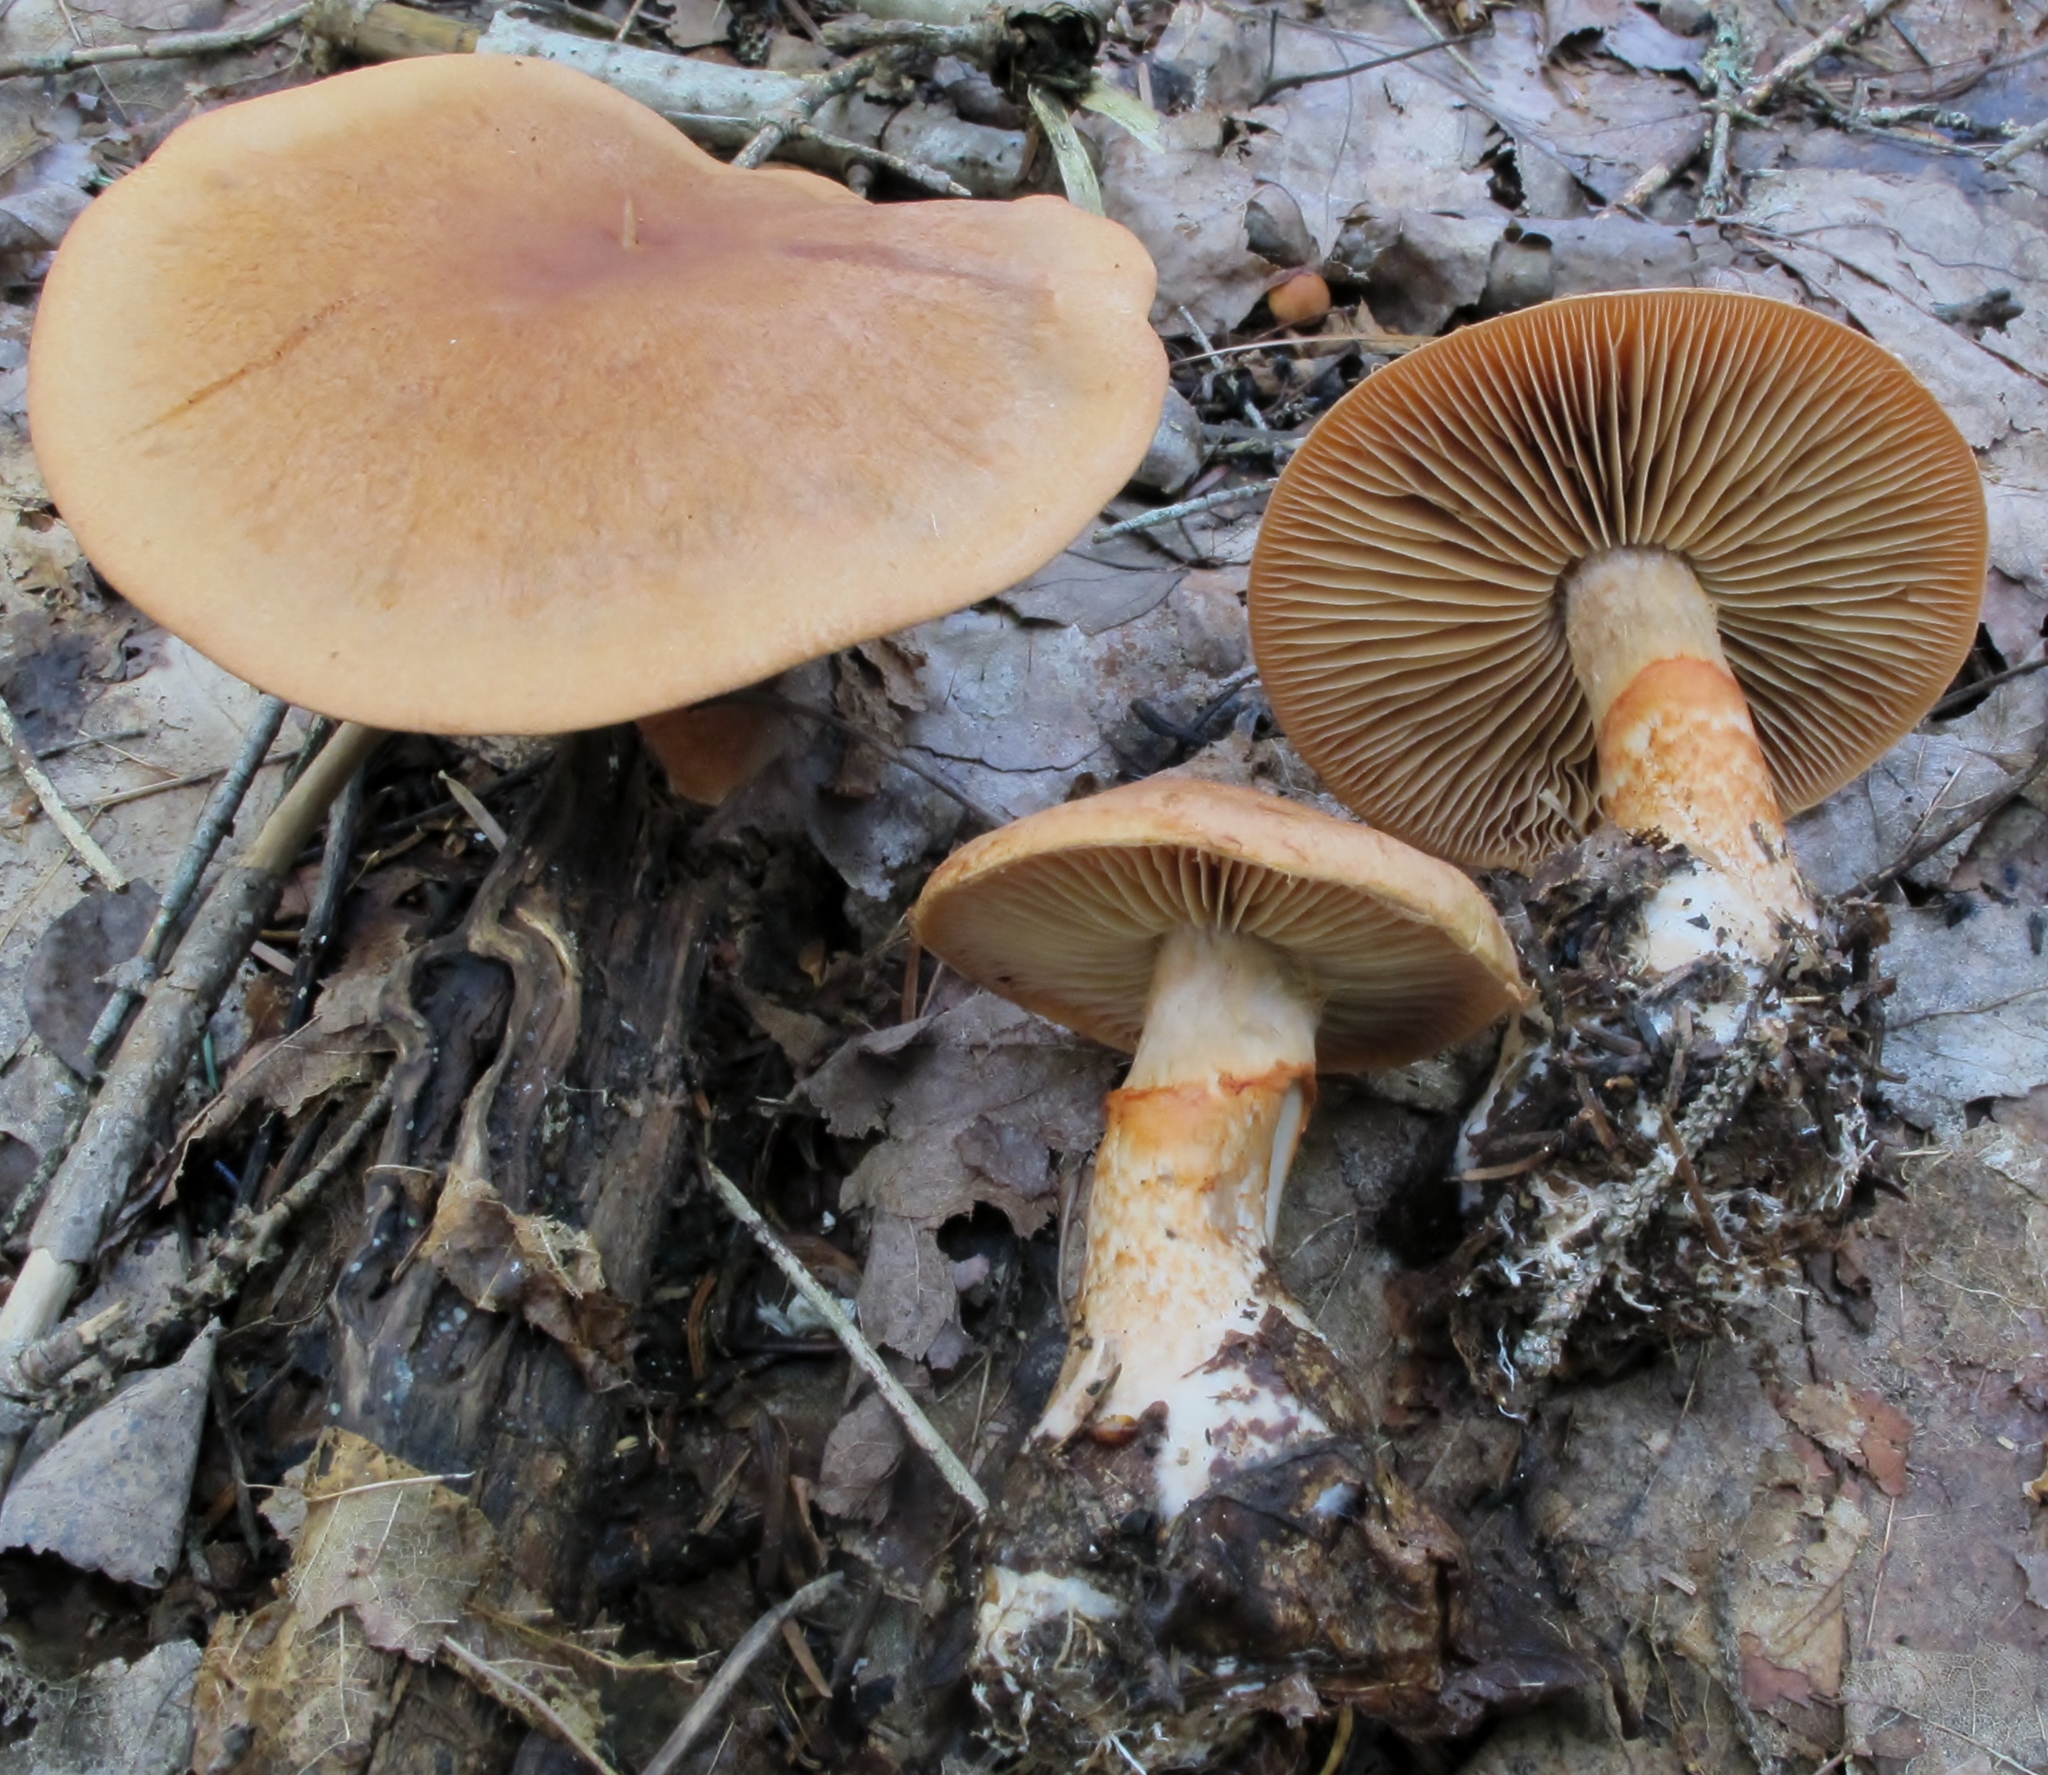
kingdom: Fungi
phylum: Basidiomycota
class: Agaricomycetes
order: Agaricales
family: Cortinariaceae
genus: Cortinarius
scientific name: Cortinarius armillatus
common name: Red banded webcap
